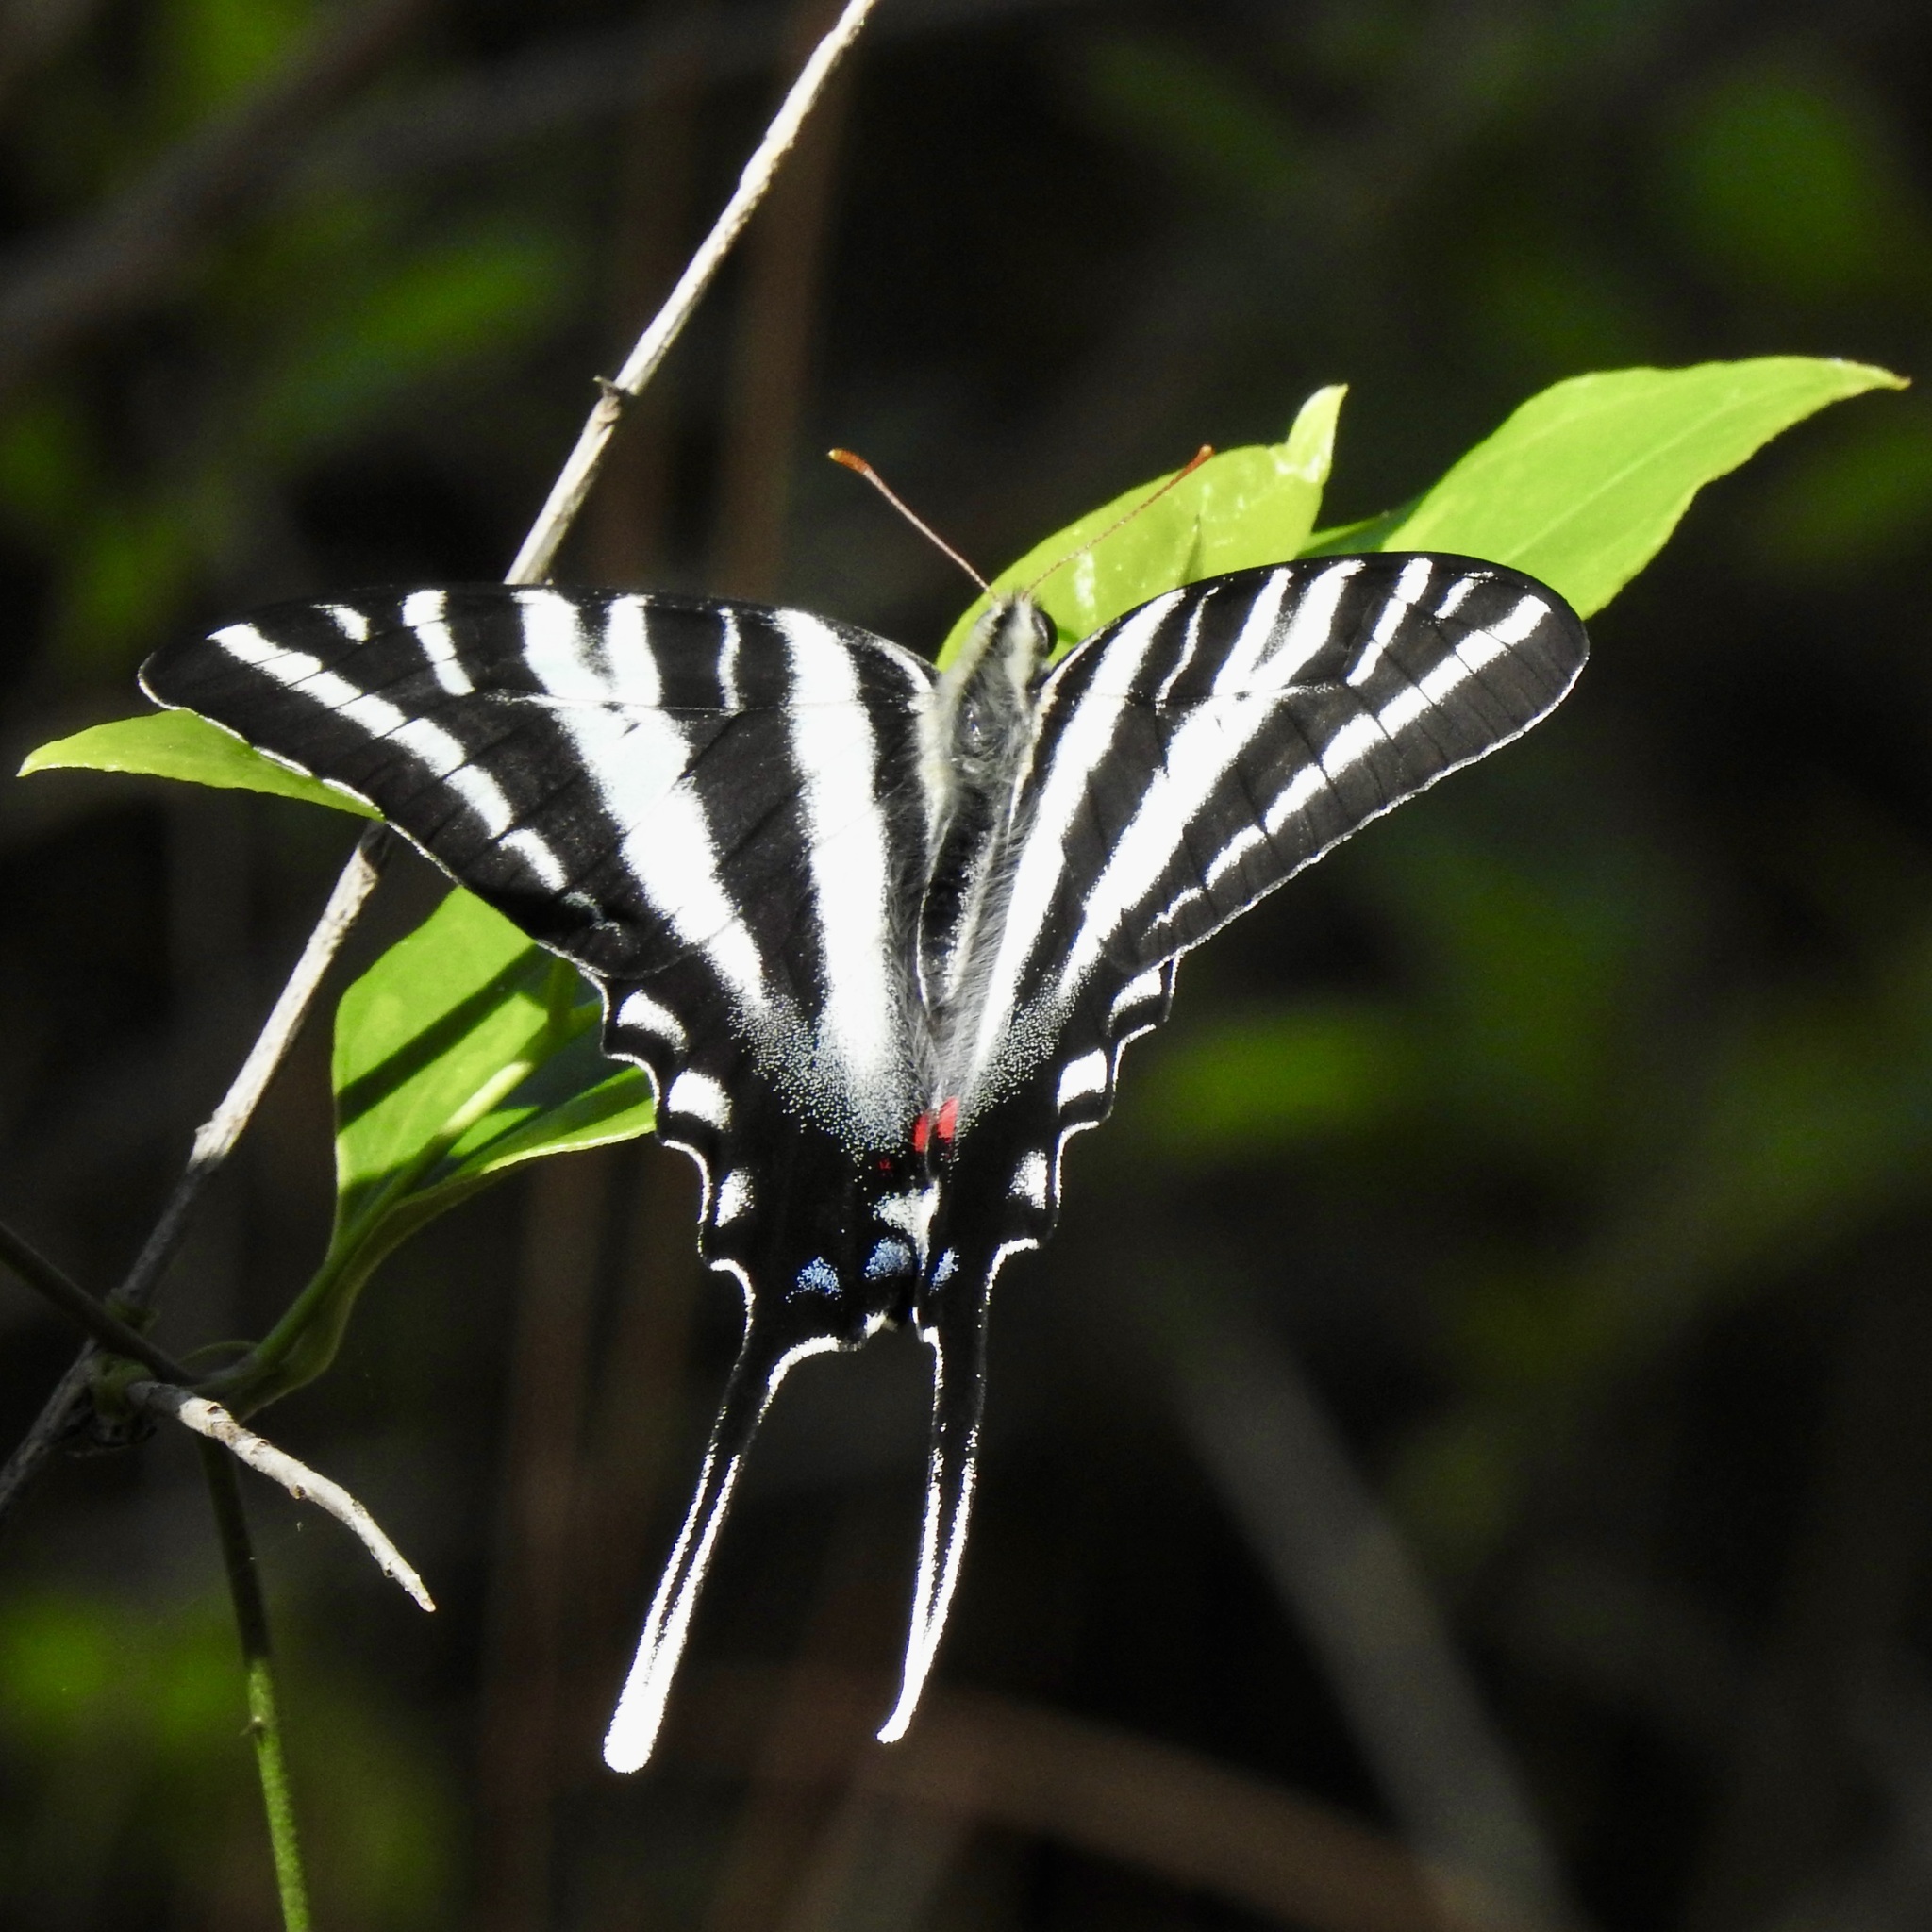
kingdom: Animalia
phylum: Arthropoda
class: Insecta
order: Lepidoptera
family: Papilionidae
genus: Protographium
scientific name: Protographium marcellus
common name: Zebra swallowtail
